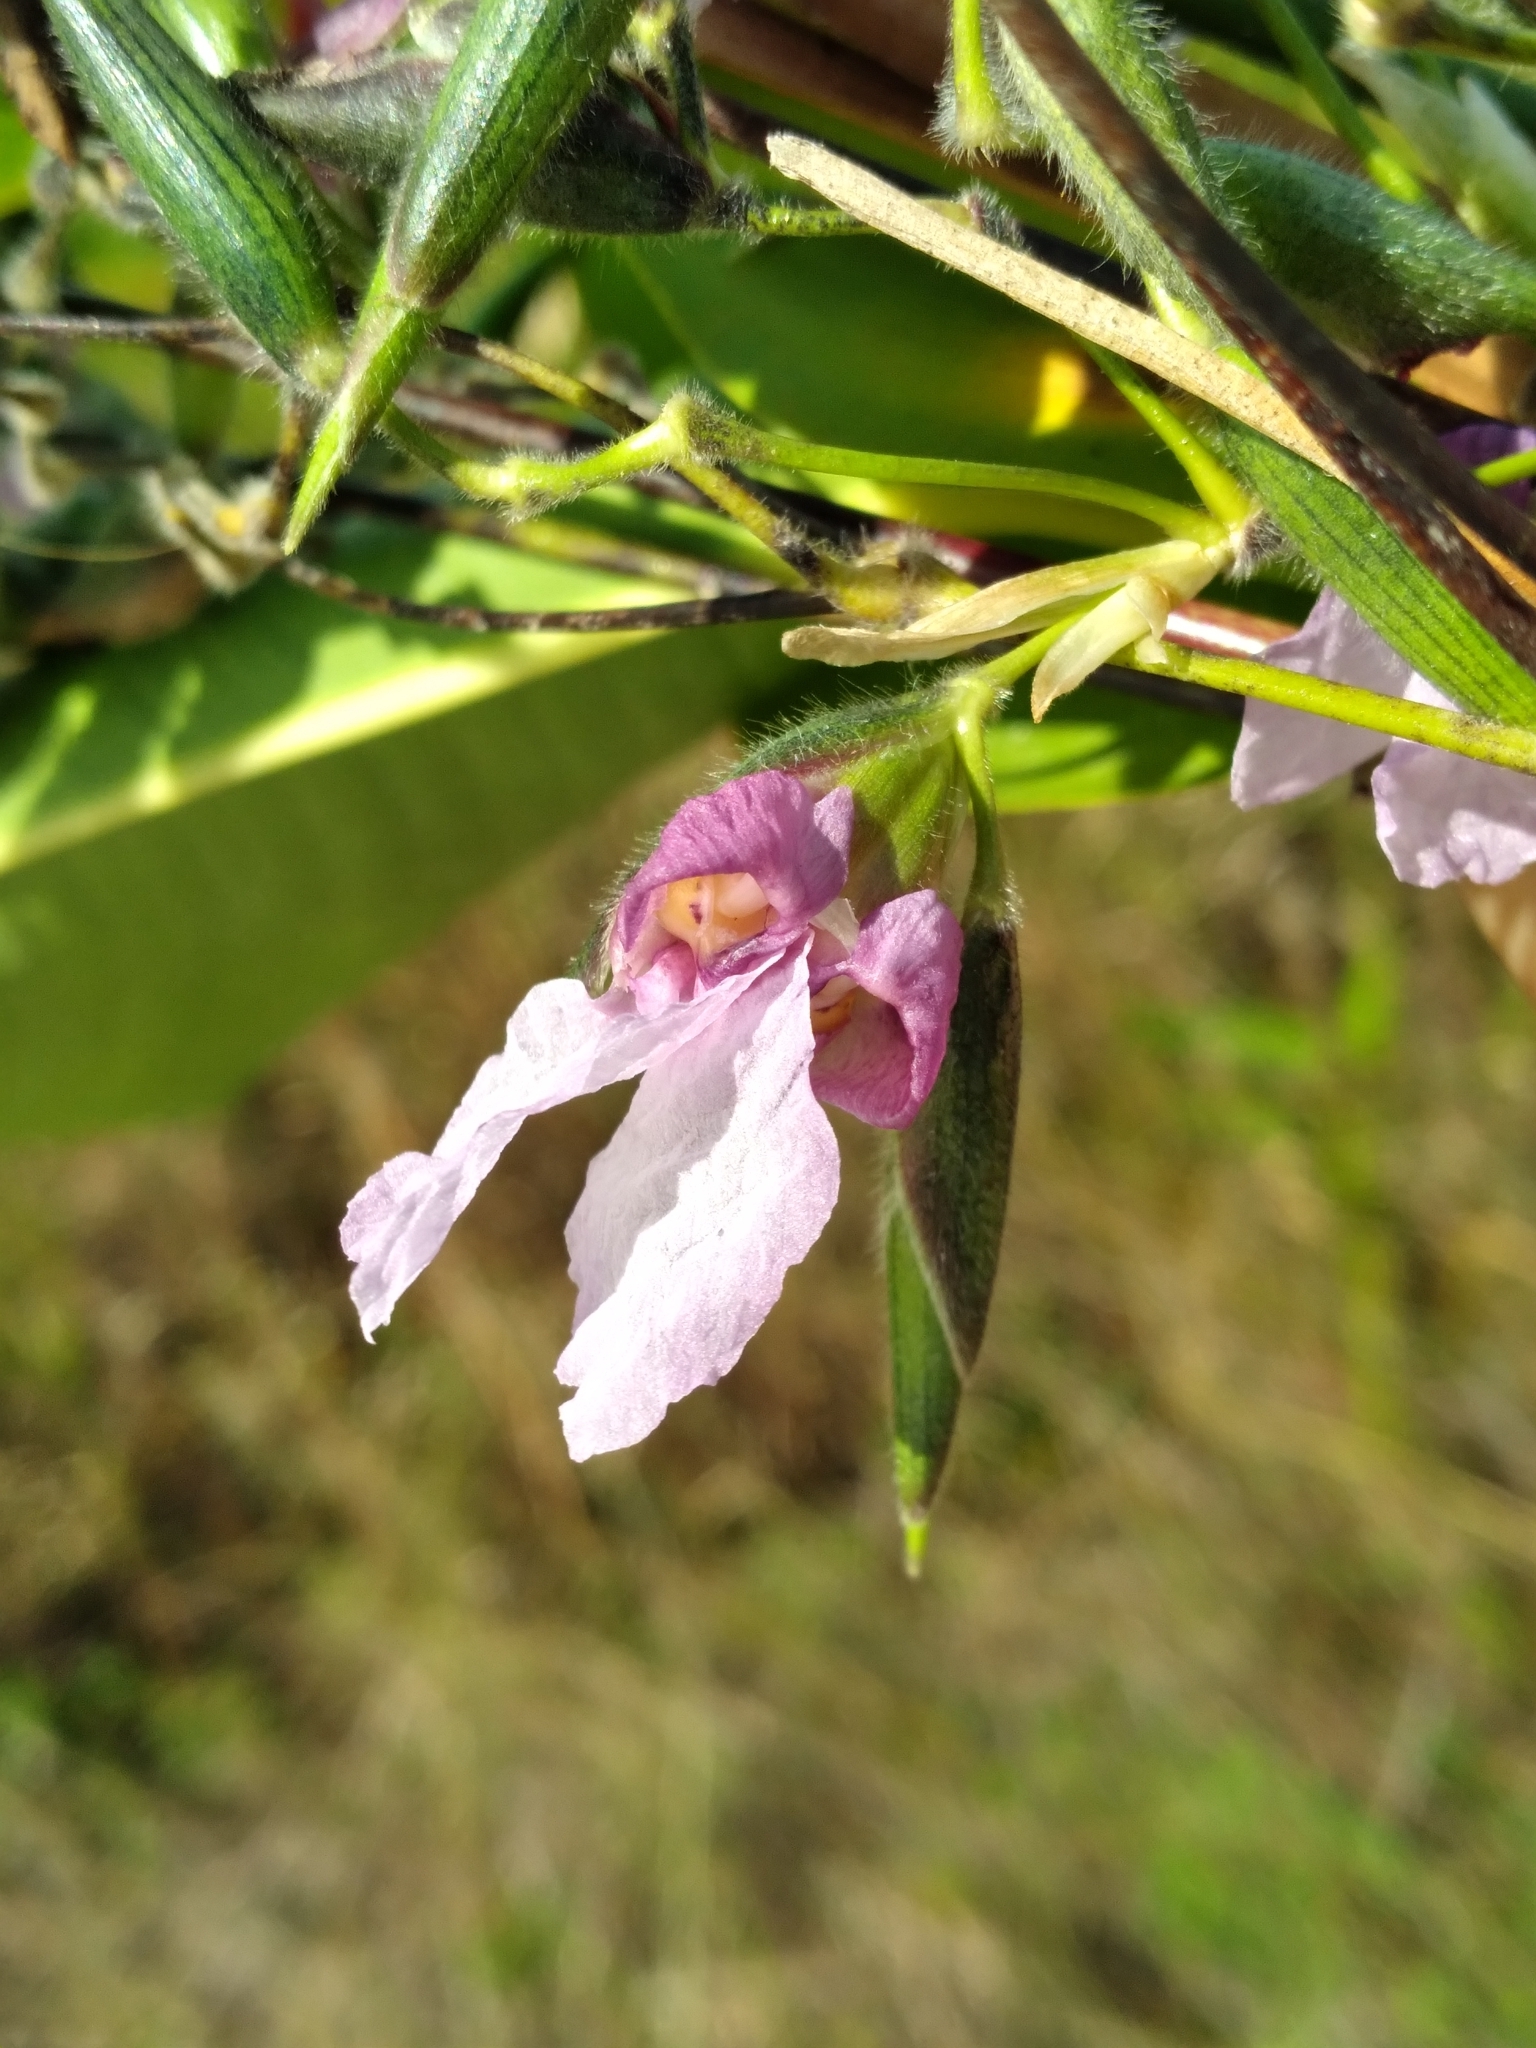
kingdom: Plantae
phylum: Tracheophyta
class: Liliopsida
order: Zingiberales
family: Marantaceae
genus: Thalia
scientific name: Thalia geniculata
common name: Arrowroot
